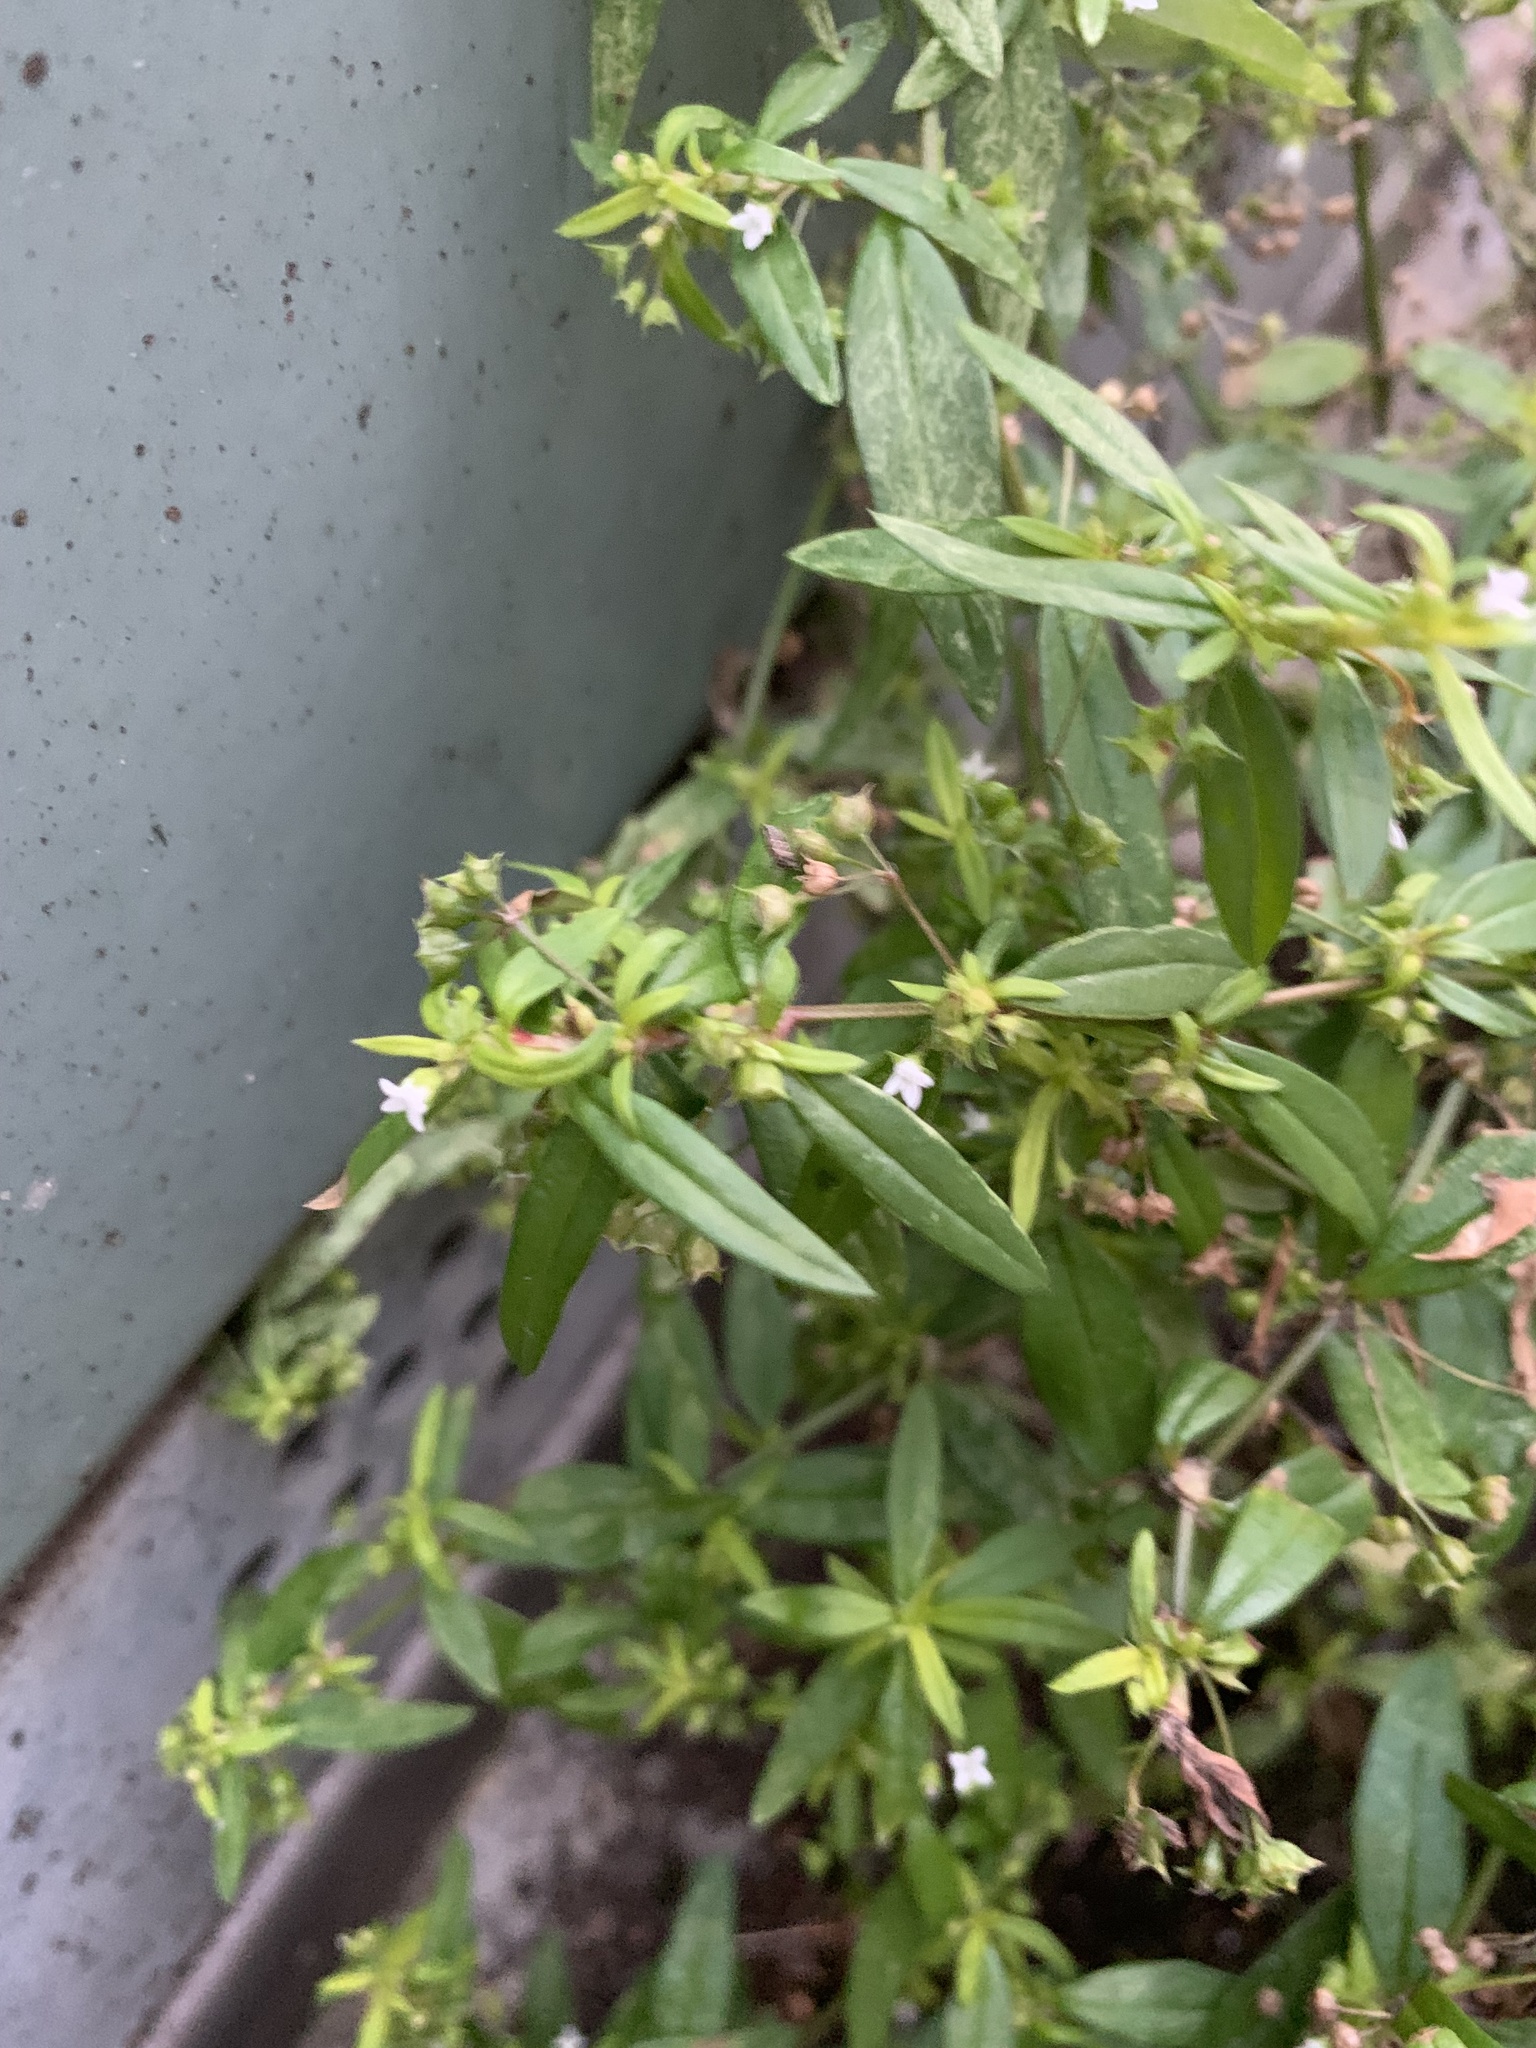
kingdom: Plantae
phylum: Tracheophyta
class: Magnoliopsida
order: Gentianales
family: Rubiaceae
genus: Oldenlandia
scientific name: Oldenlandia corymbosa
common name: Flat-top mille graines
